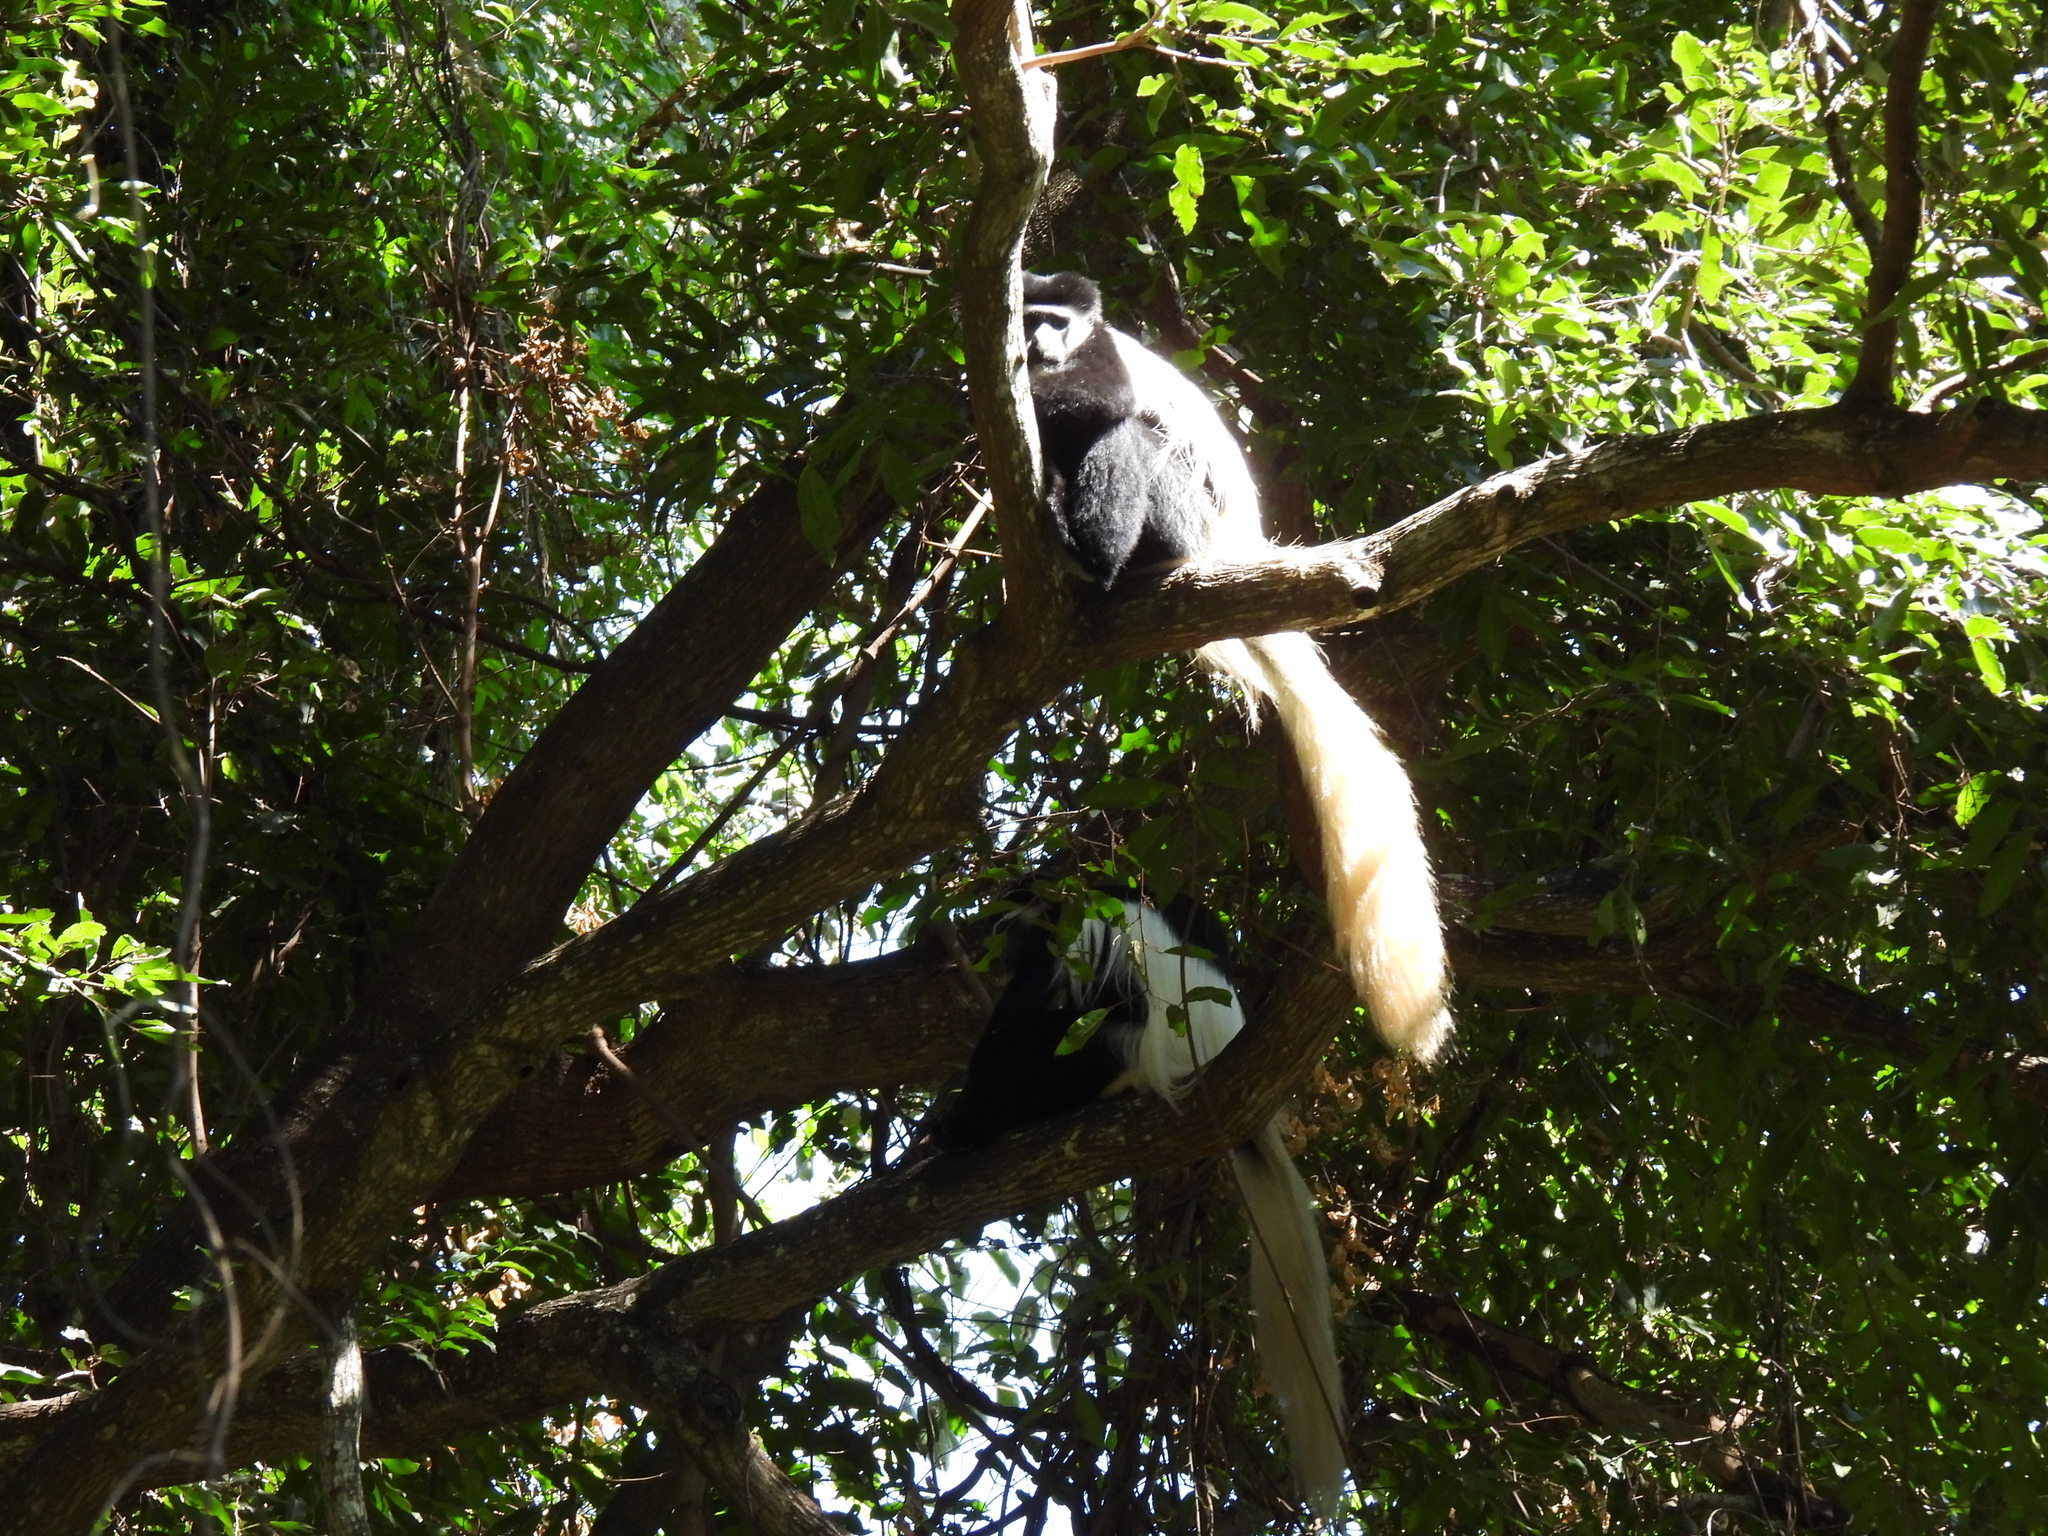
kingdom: Animalia
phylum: Chordata
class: Mammalia
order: Primates
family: Cercopithecidae
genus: Colobus
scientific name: Colobus caudatus
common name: Mount kilimanjaro guereza
